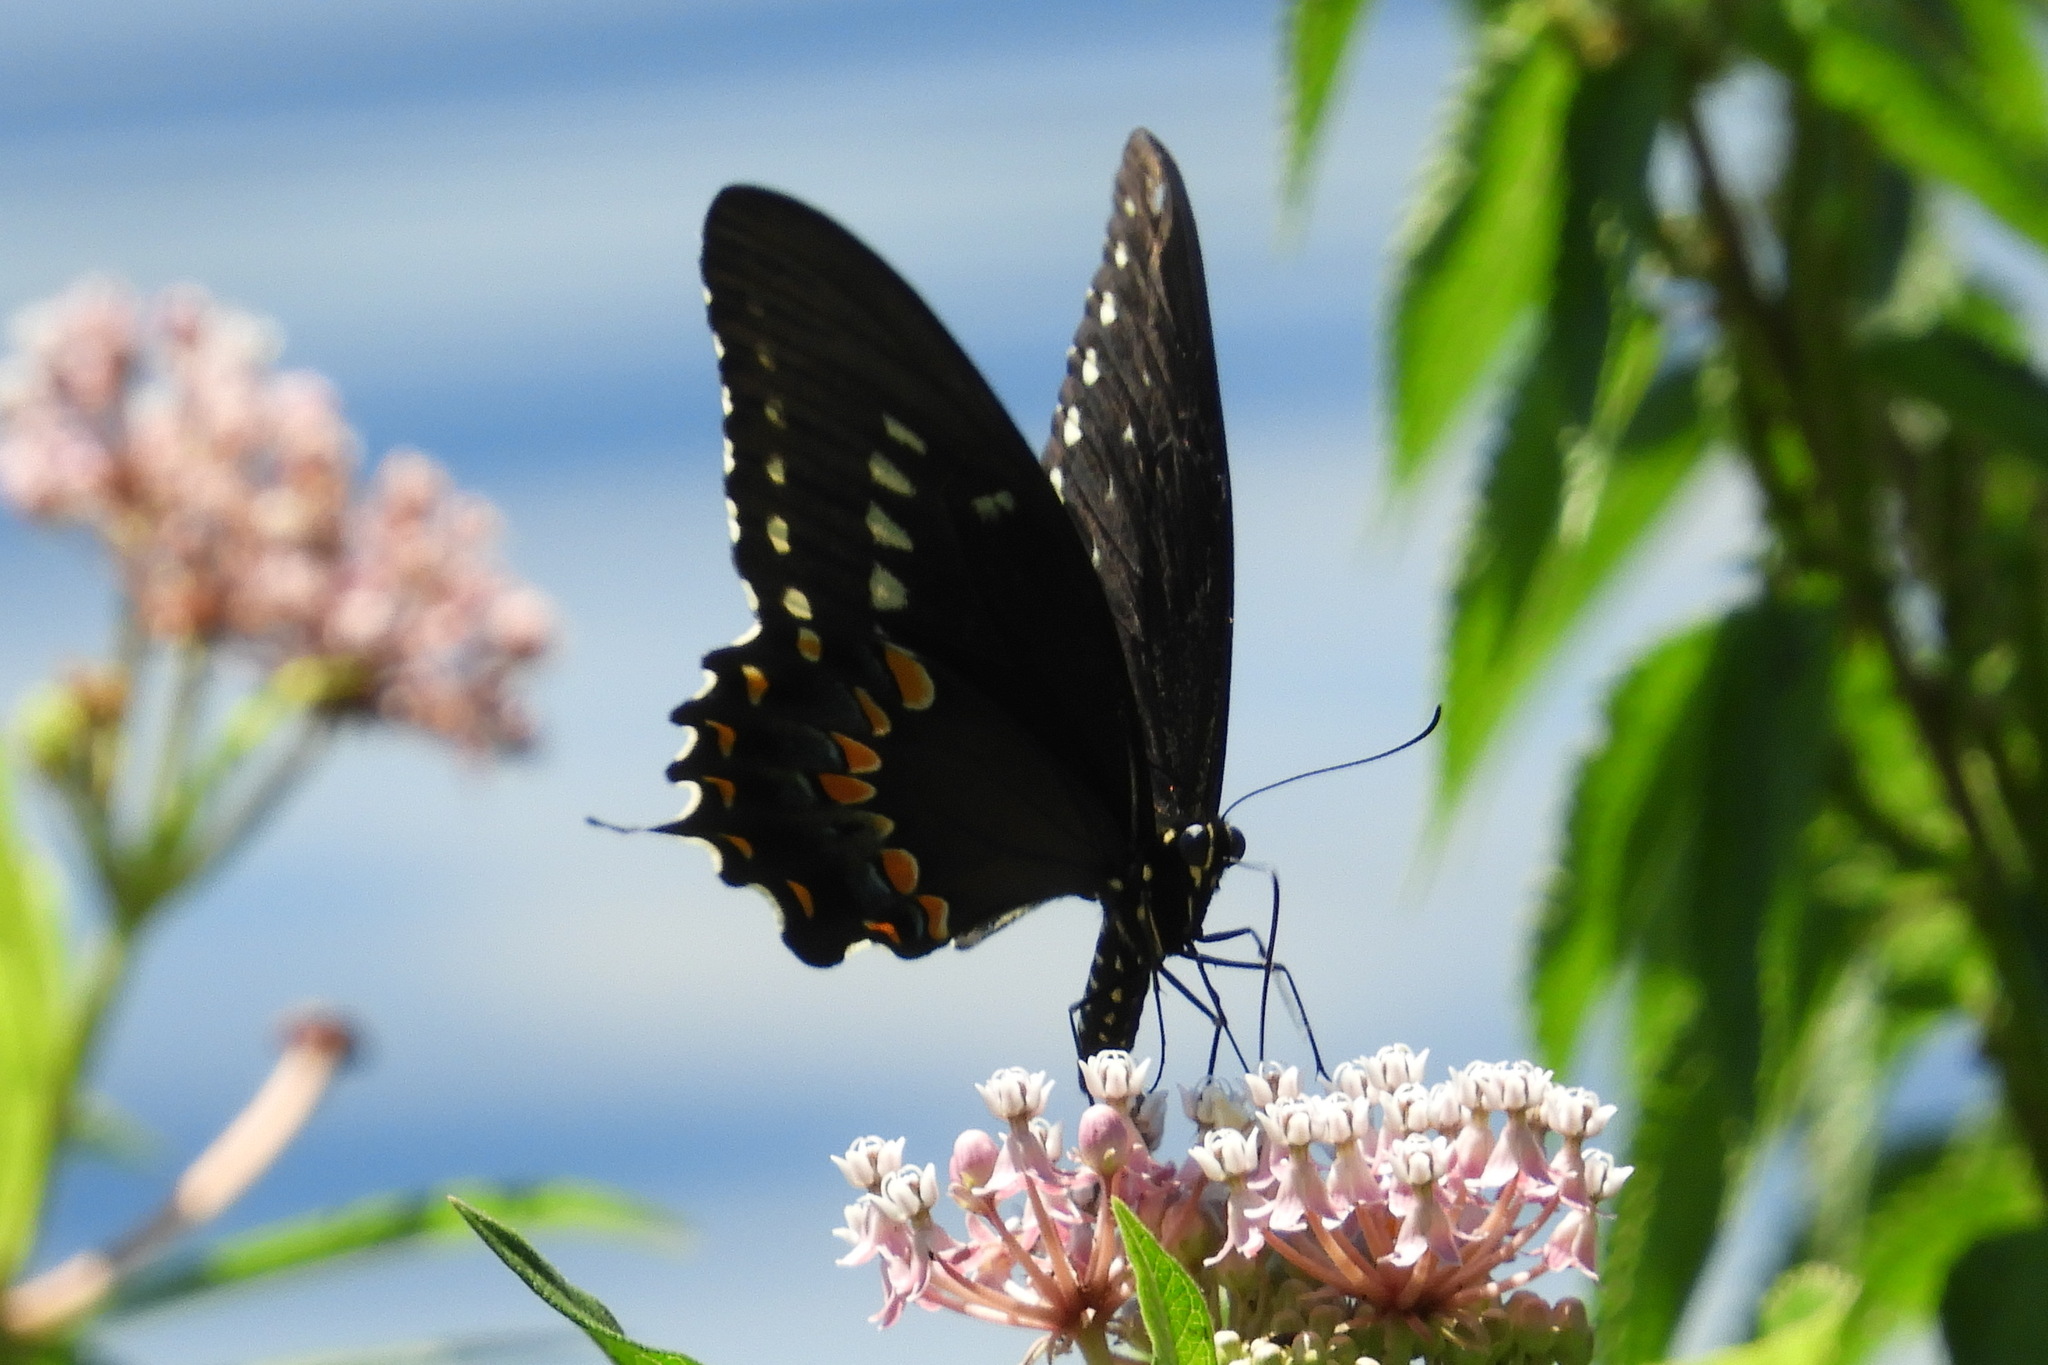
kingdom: Animalia
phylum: Arthropoda
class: Insecta
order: Lepidoptera
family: Papilionidae
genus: Papilio
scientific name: Papilio troilus
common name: Spicebush swallowtail
